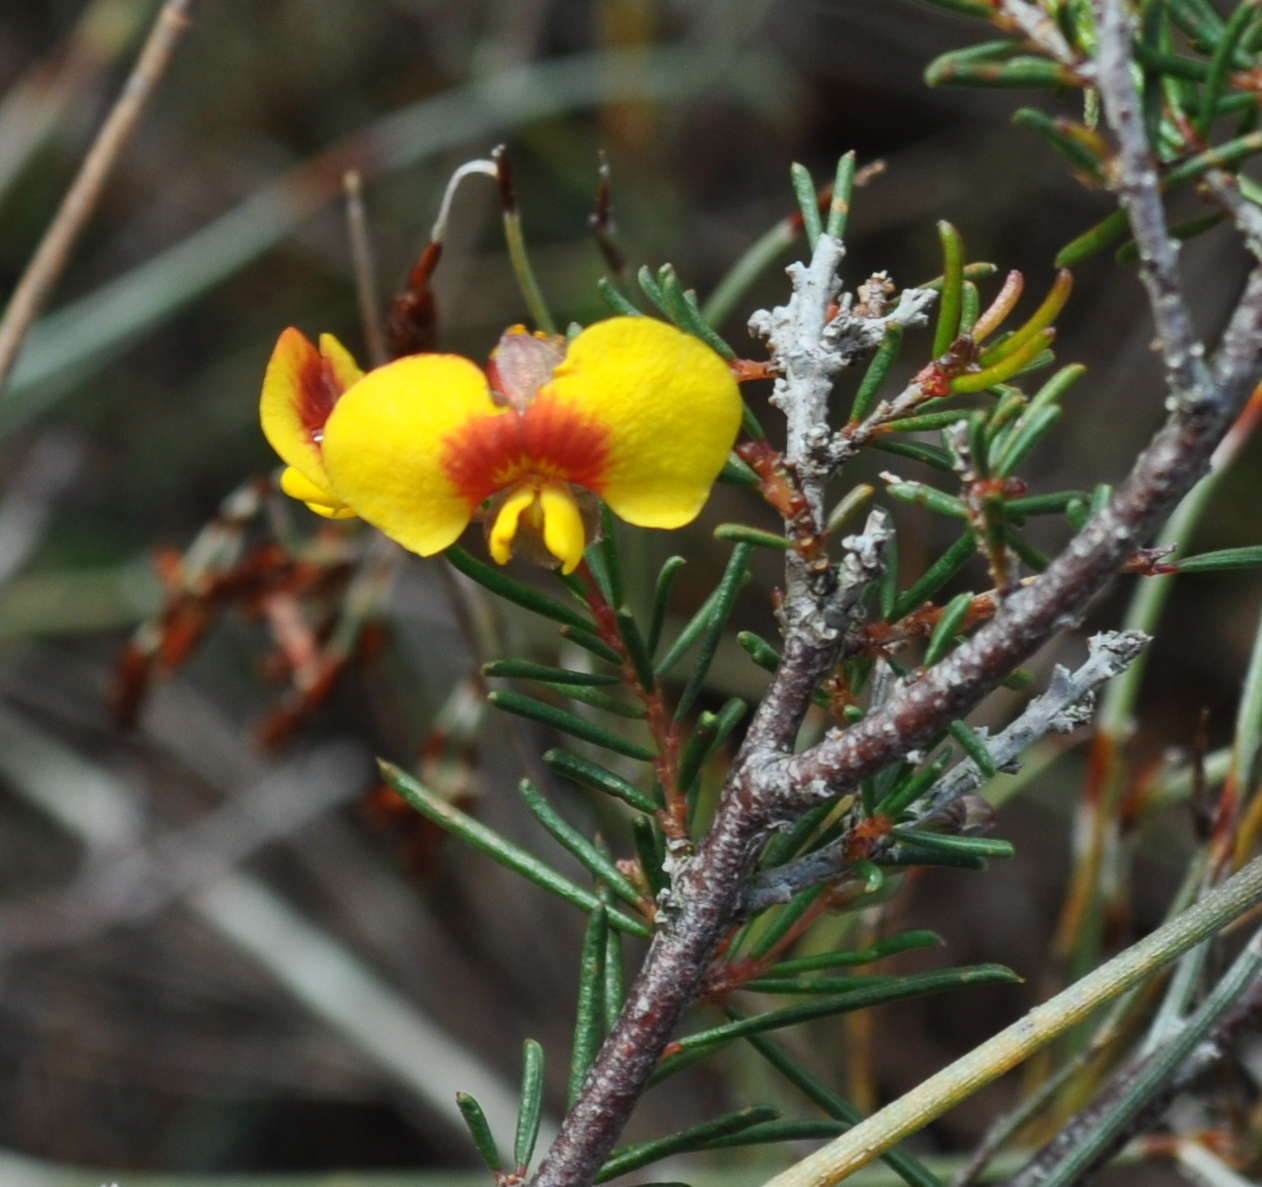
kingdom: Plantae
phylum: Tracheophyta
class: Magnoliopsida
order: Fabales
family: Fabaceae
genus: Dillwynia
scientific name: Dillwynia glaberrima
